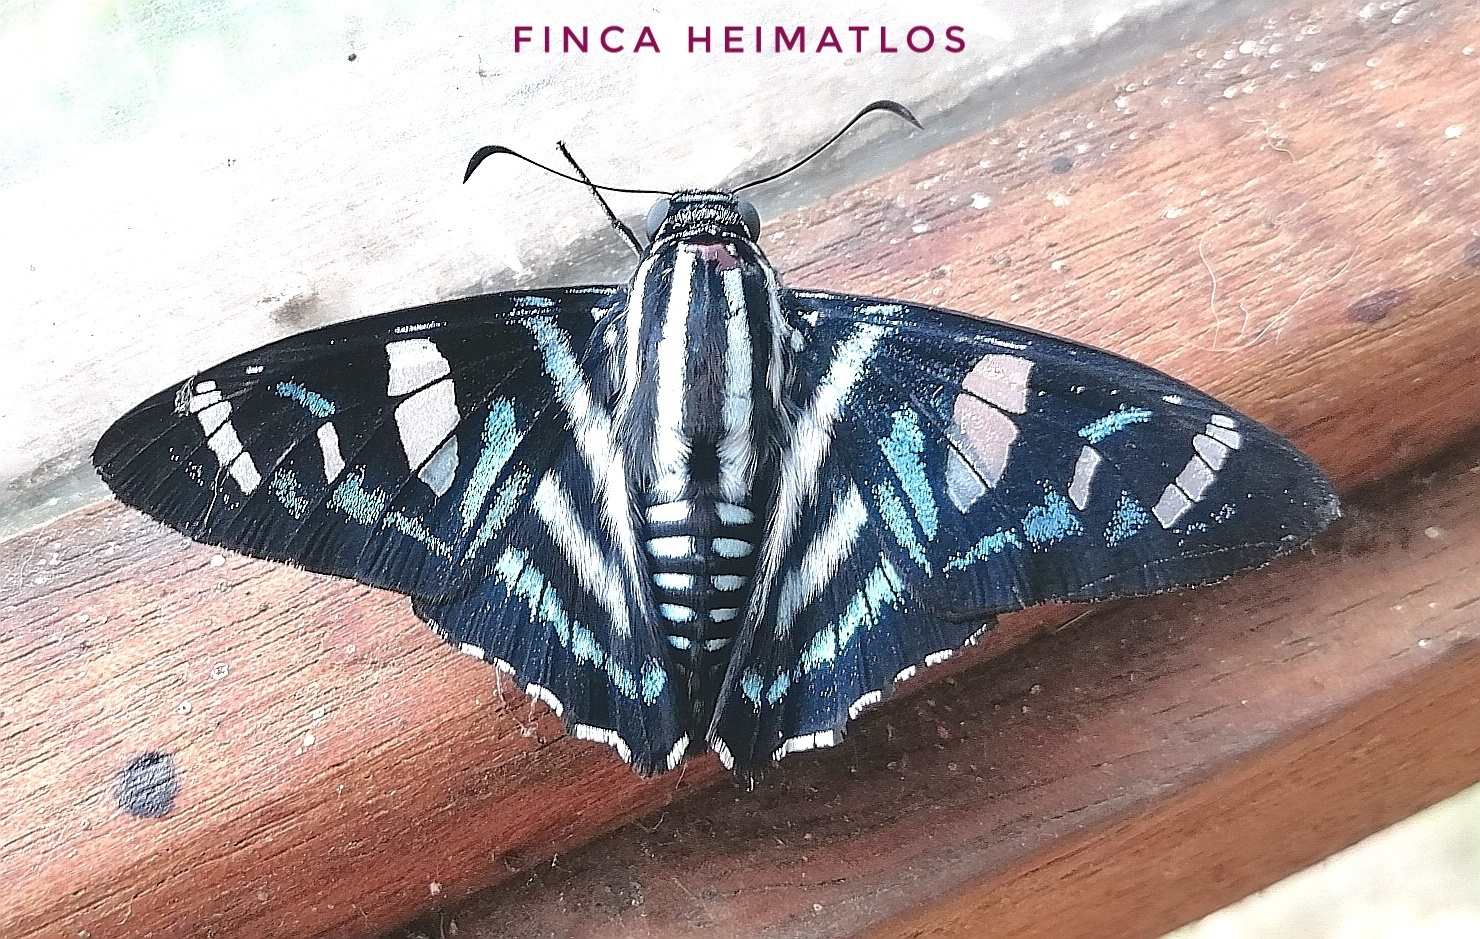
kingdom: Animalia
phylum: Arthropoda
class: Insecta
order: Lepidoptera
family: Hesperiidae
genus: Elbella
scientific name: Elbella azeta
